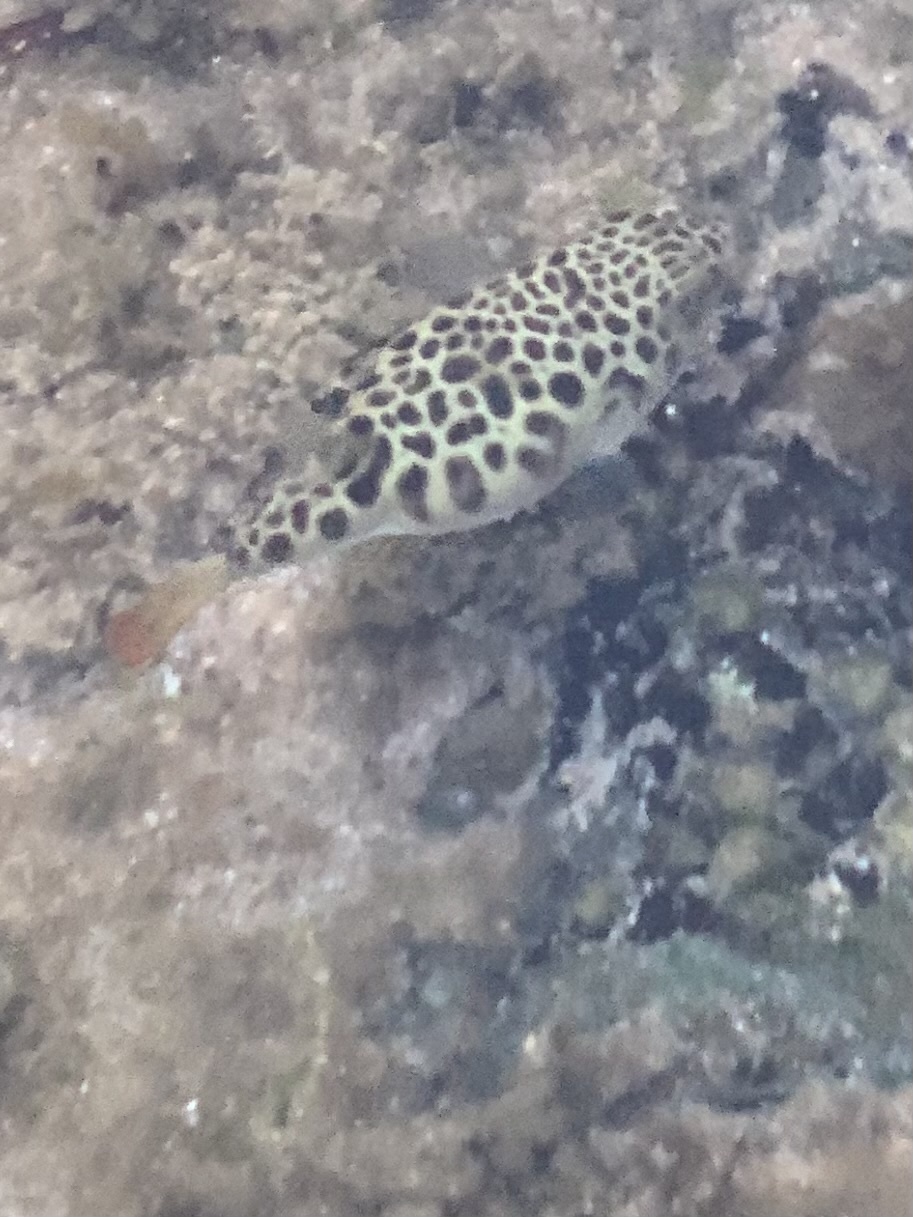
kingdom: Animalia
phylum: Chordata
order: Tetraodontiformes
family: Tetraodontidae
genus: Tetractenos
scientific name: Tetractenos glaber
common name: Smooth toadfish
